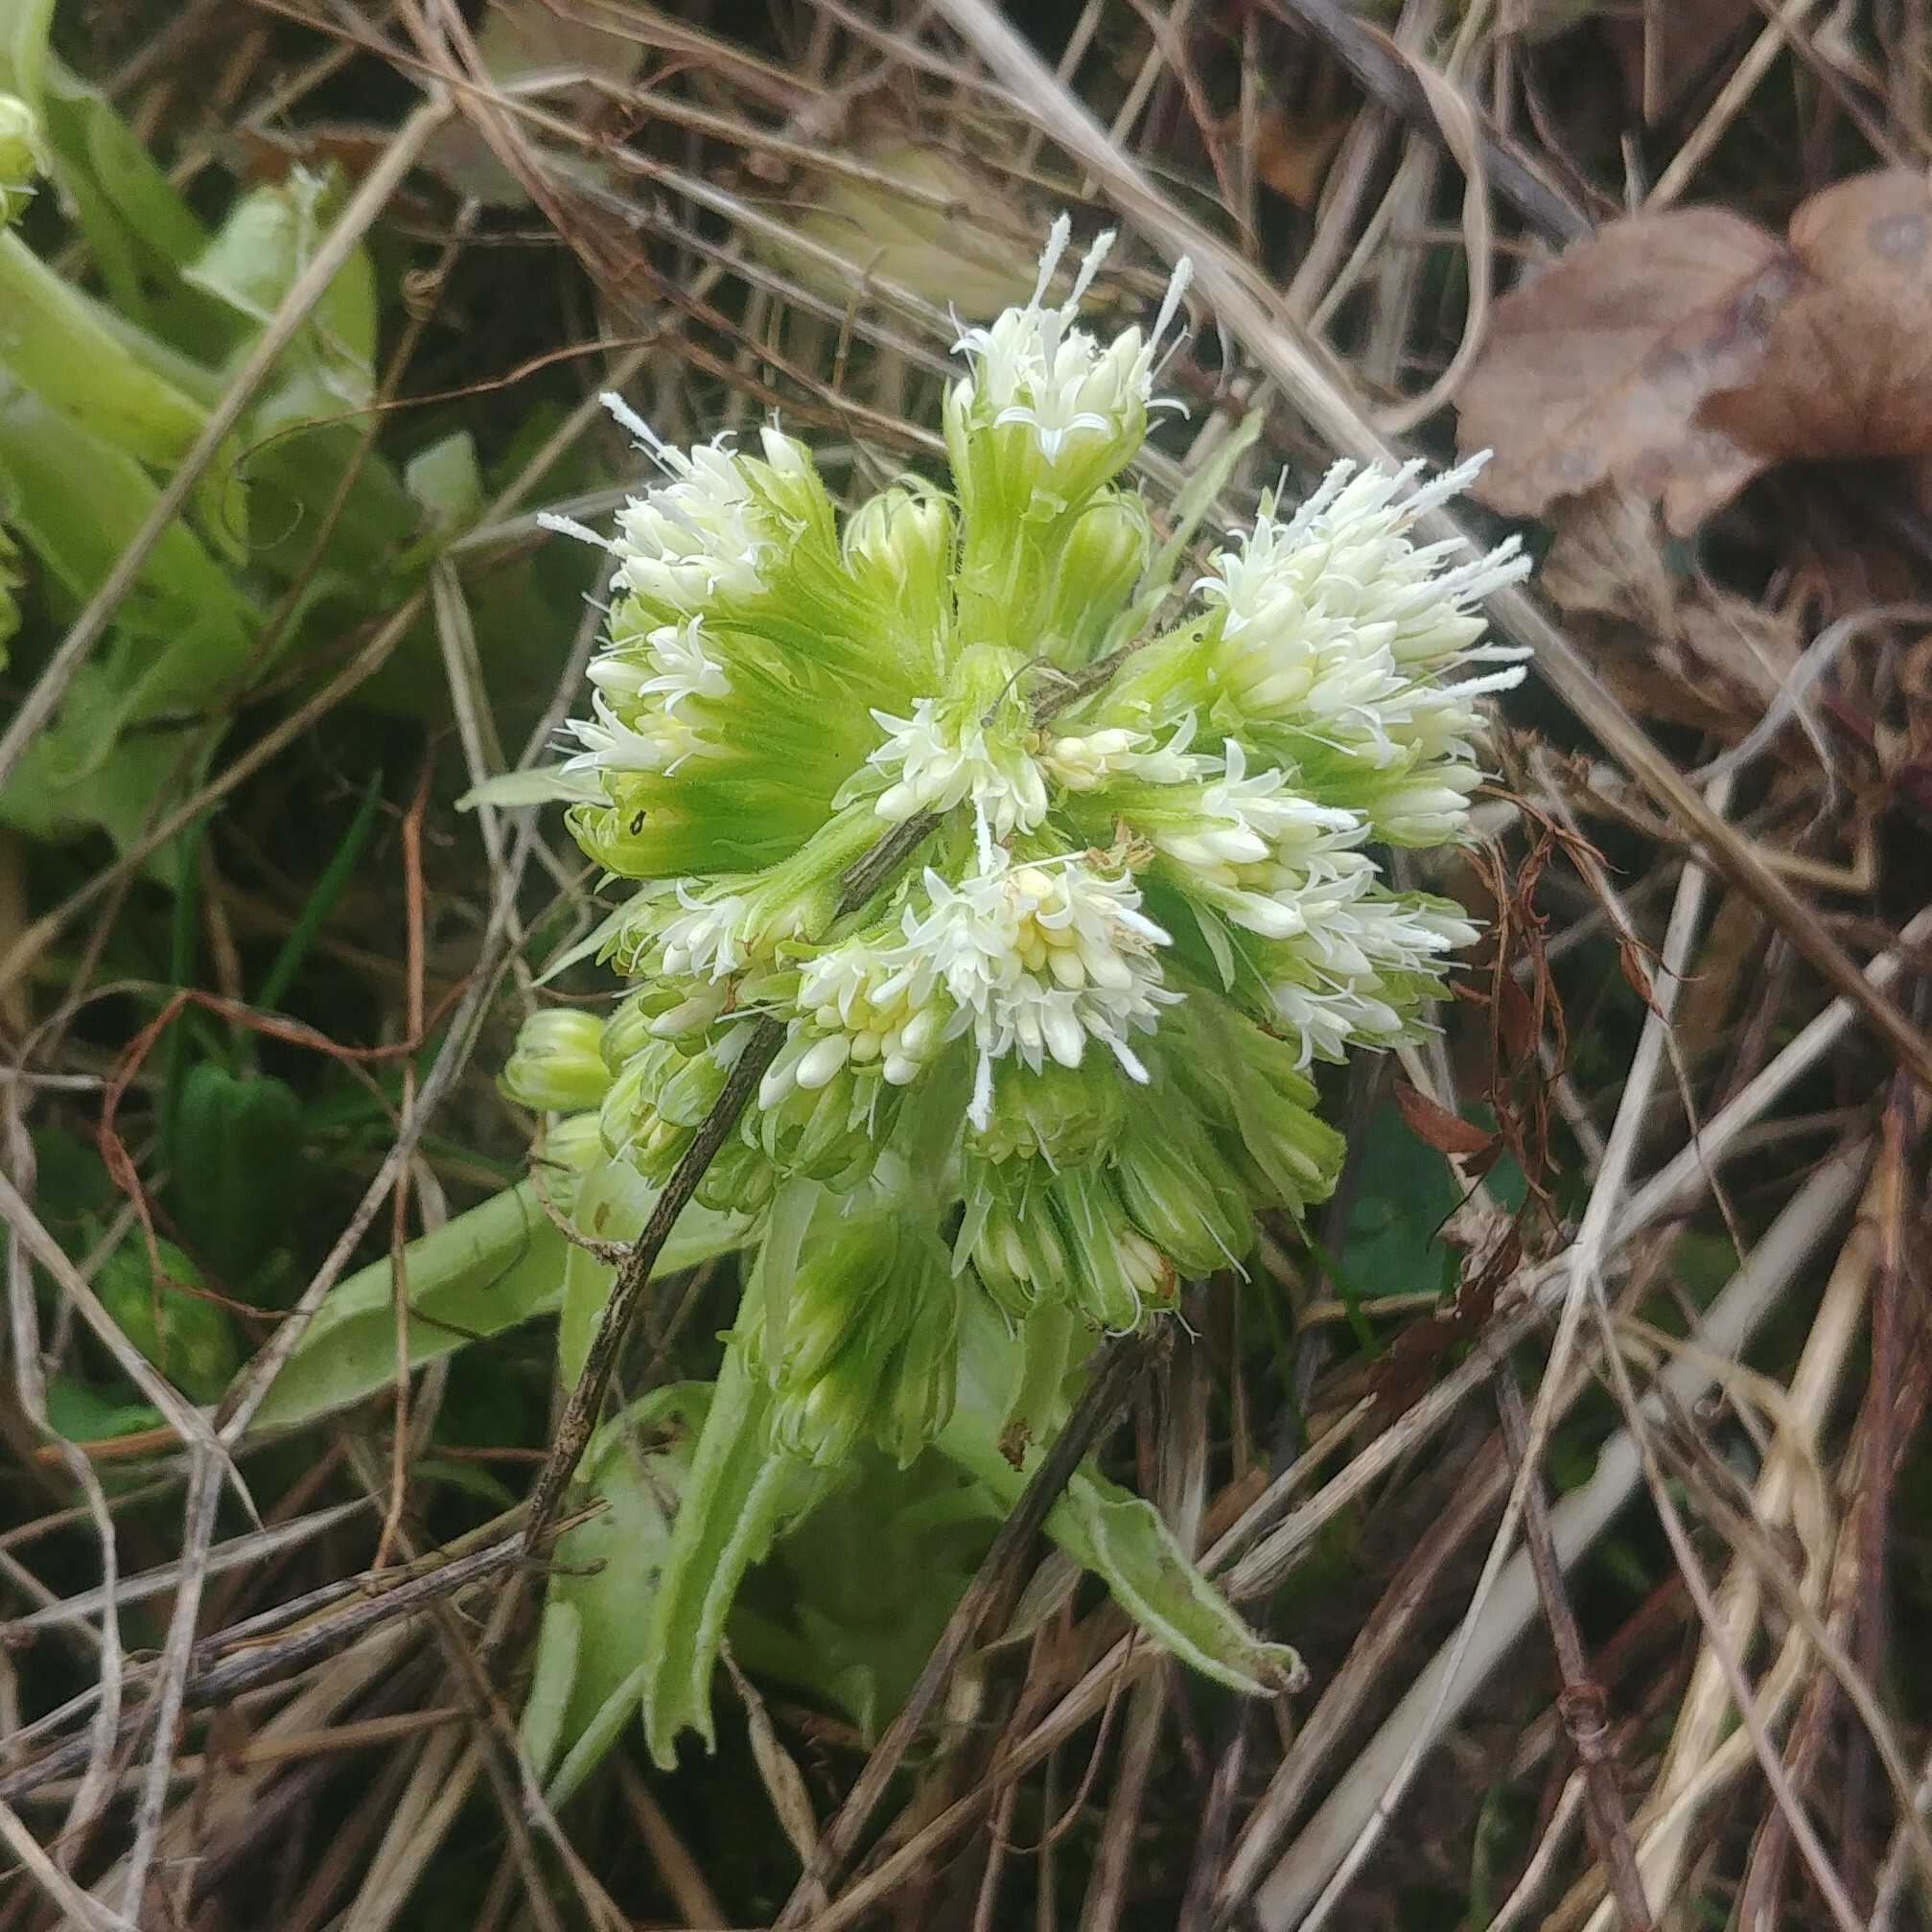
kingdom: Plantae
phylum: Tracheophyta
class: Magnoliopsida
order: Asterales
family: Asteraceae
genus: Petasites
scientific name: Petasites albus
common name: White butterbur
